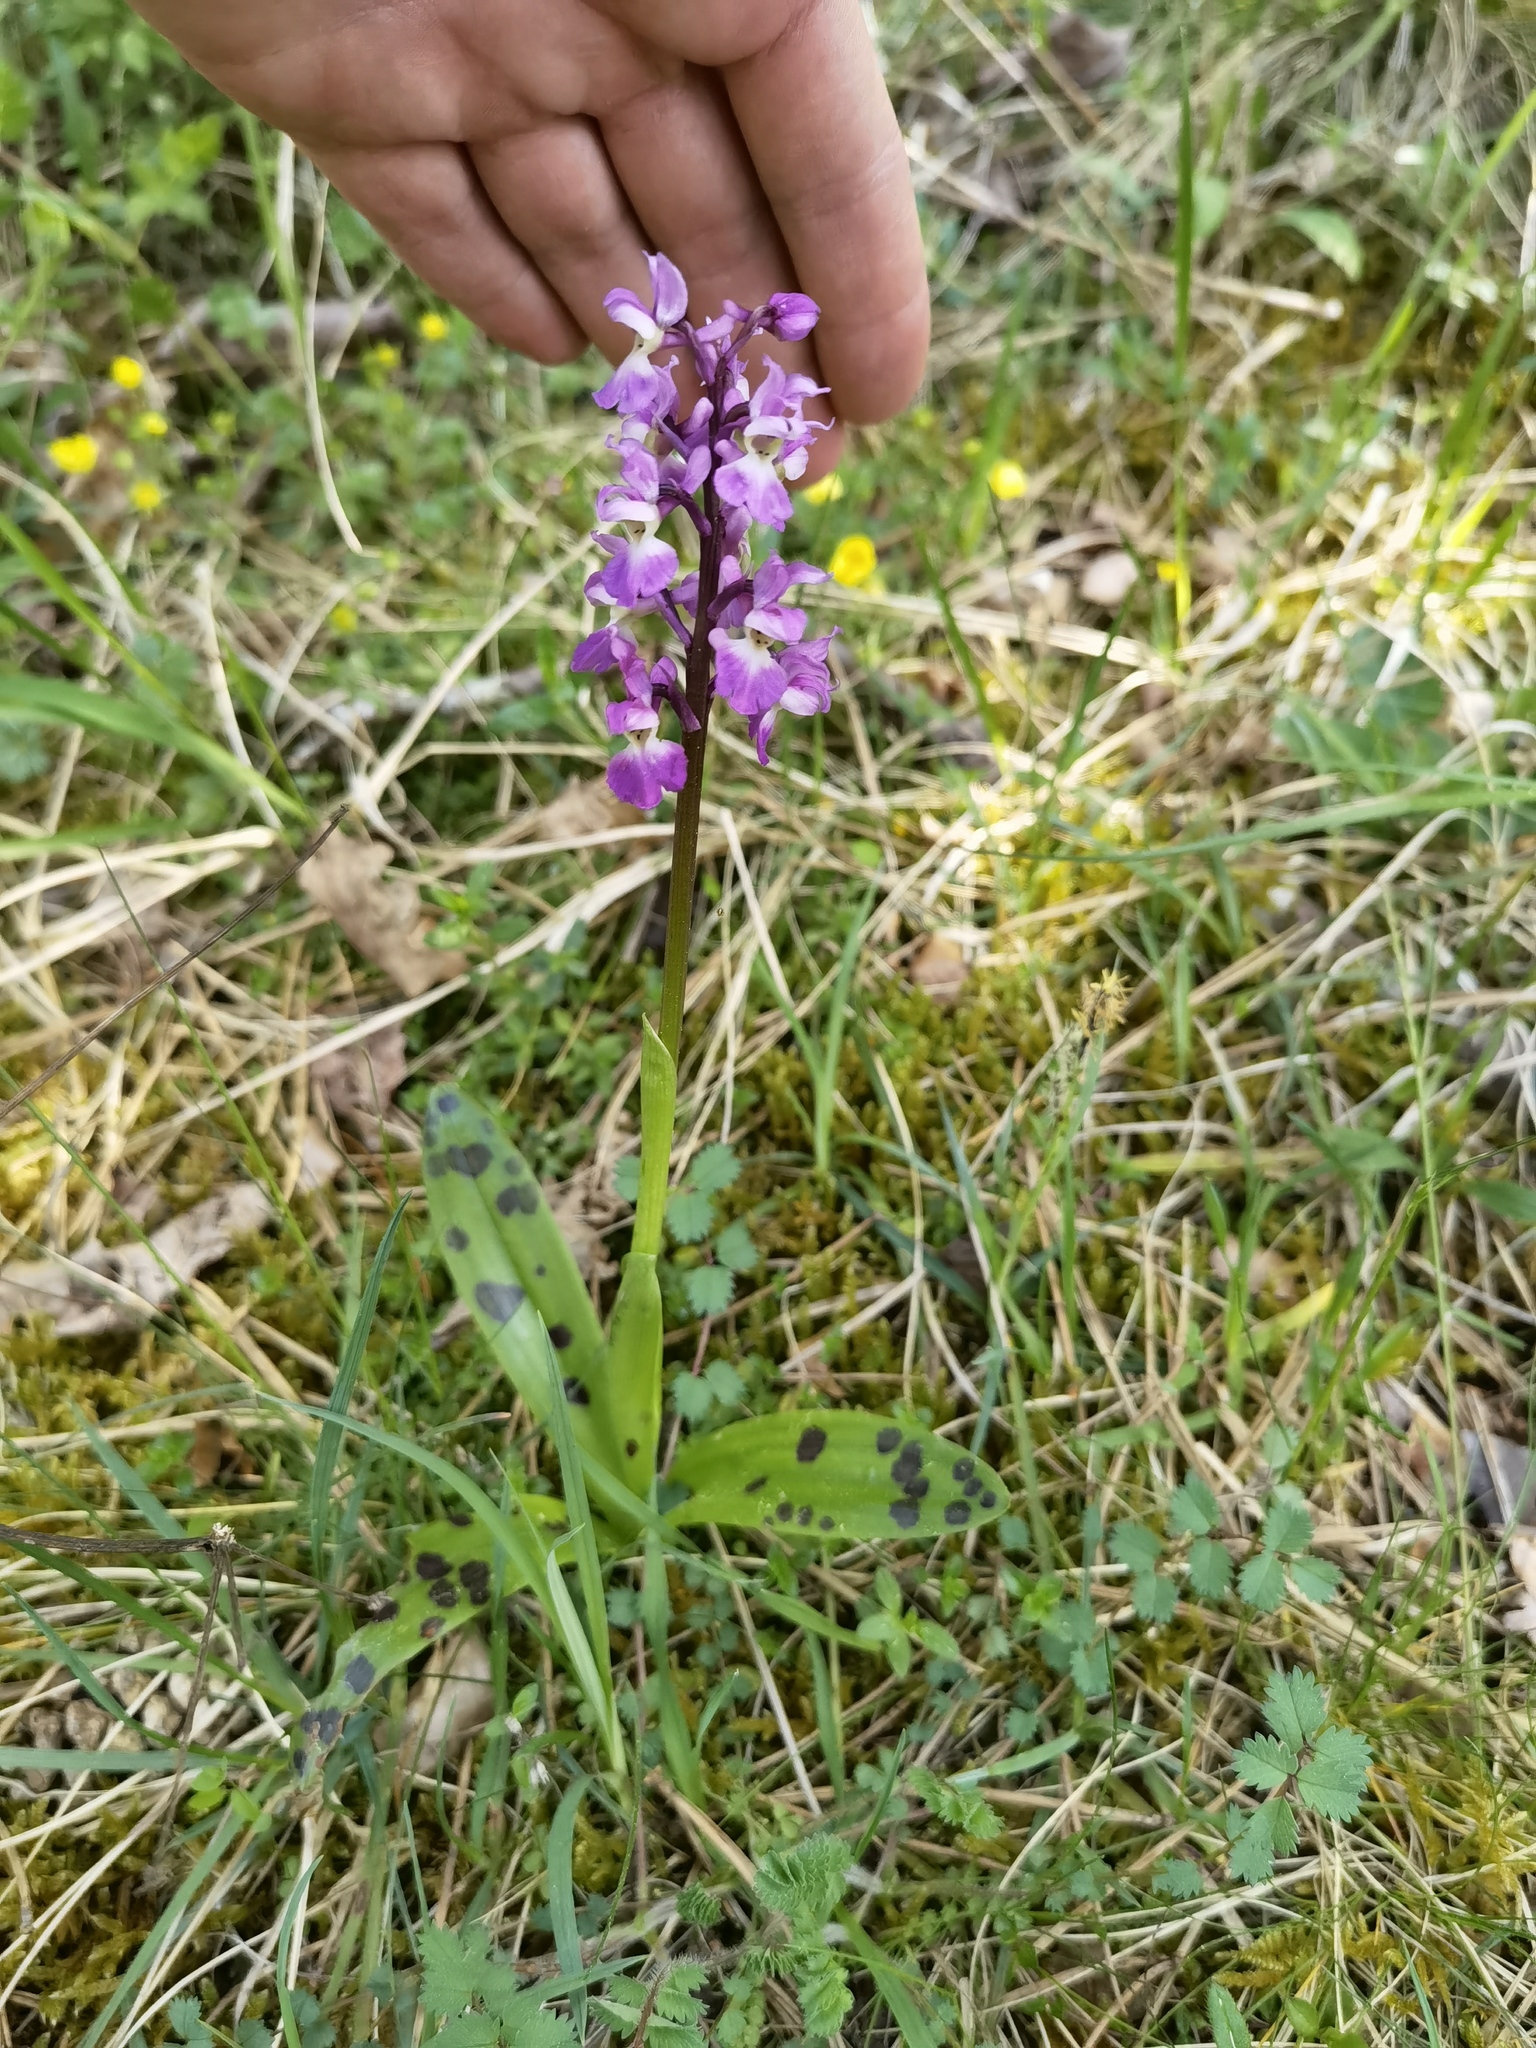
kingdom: Plantae
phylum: Tracheophyta
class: Liliopsida
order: Asparagales
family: Orchidaceae
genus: Orchis
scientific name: Orchis mascula
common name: Early-purple orchid
